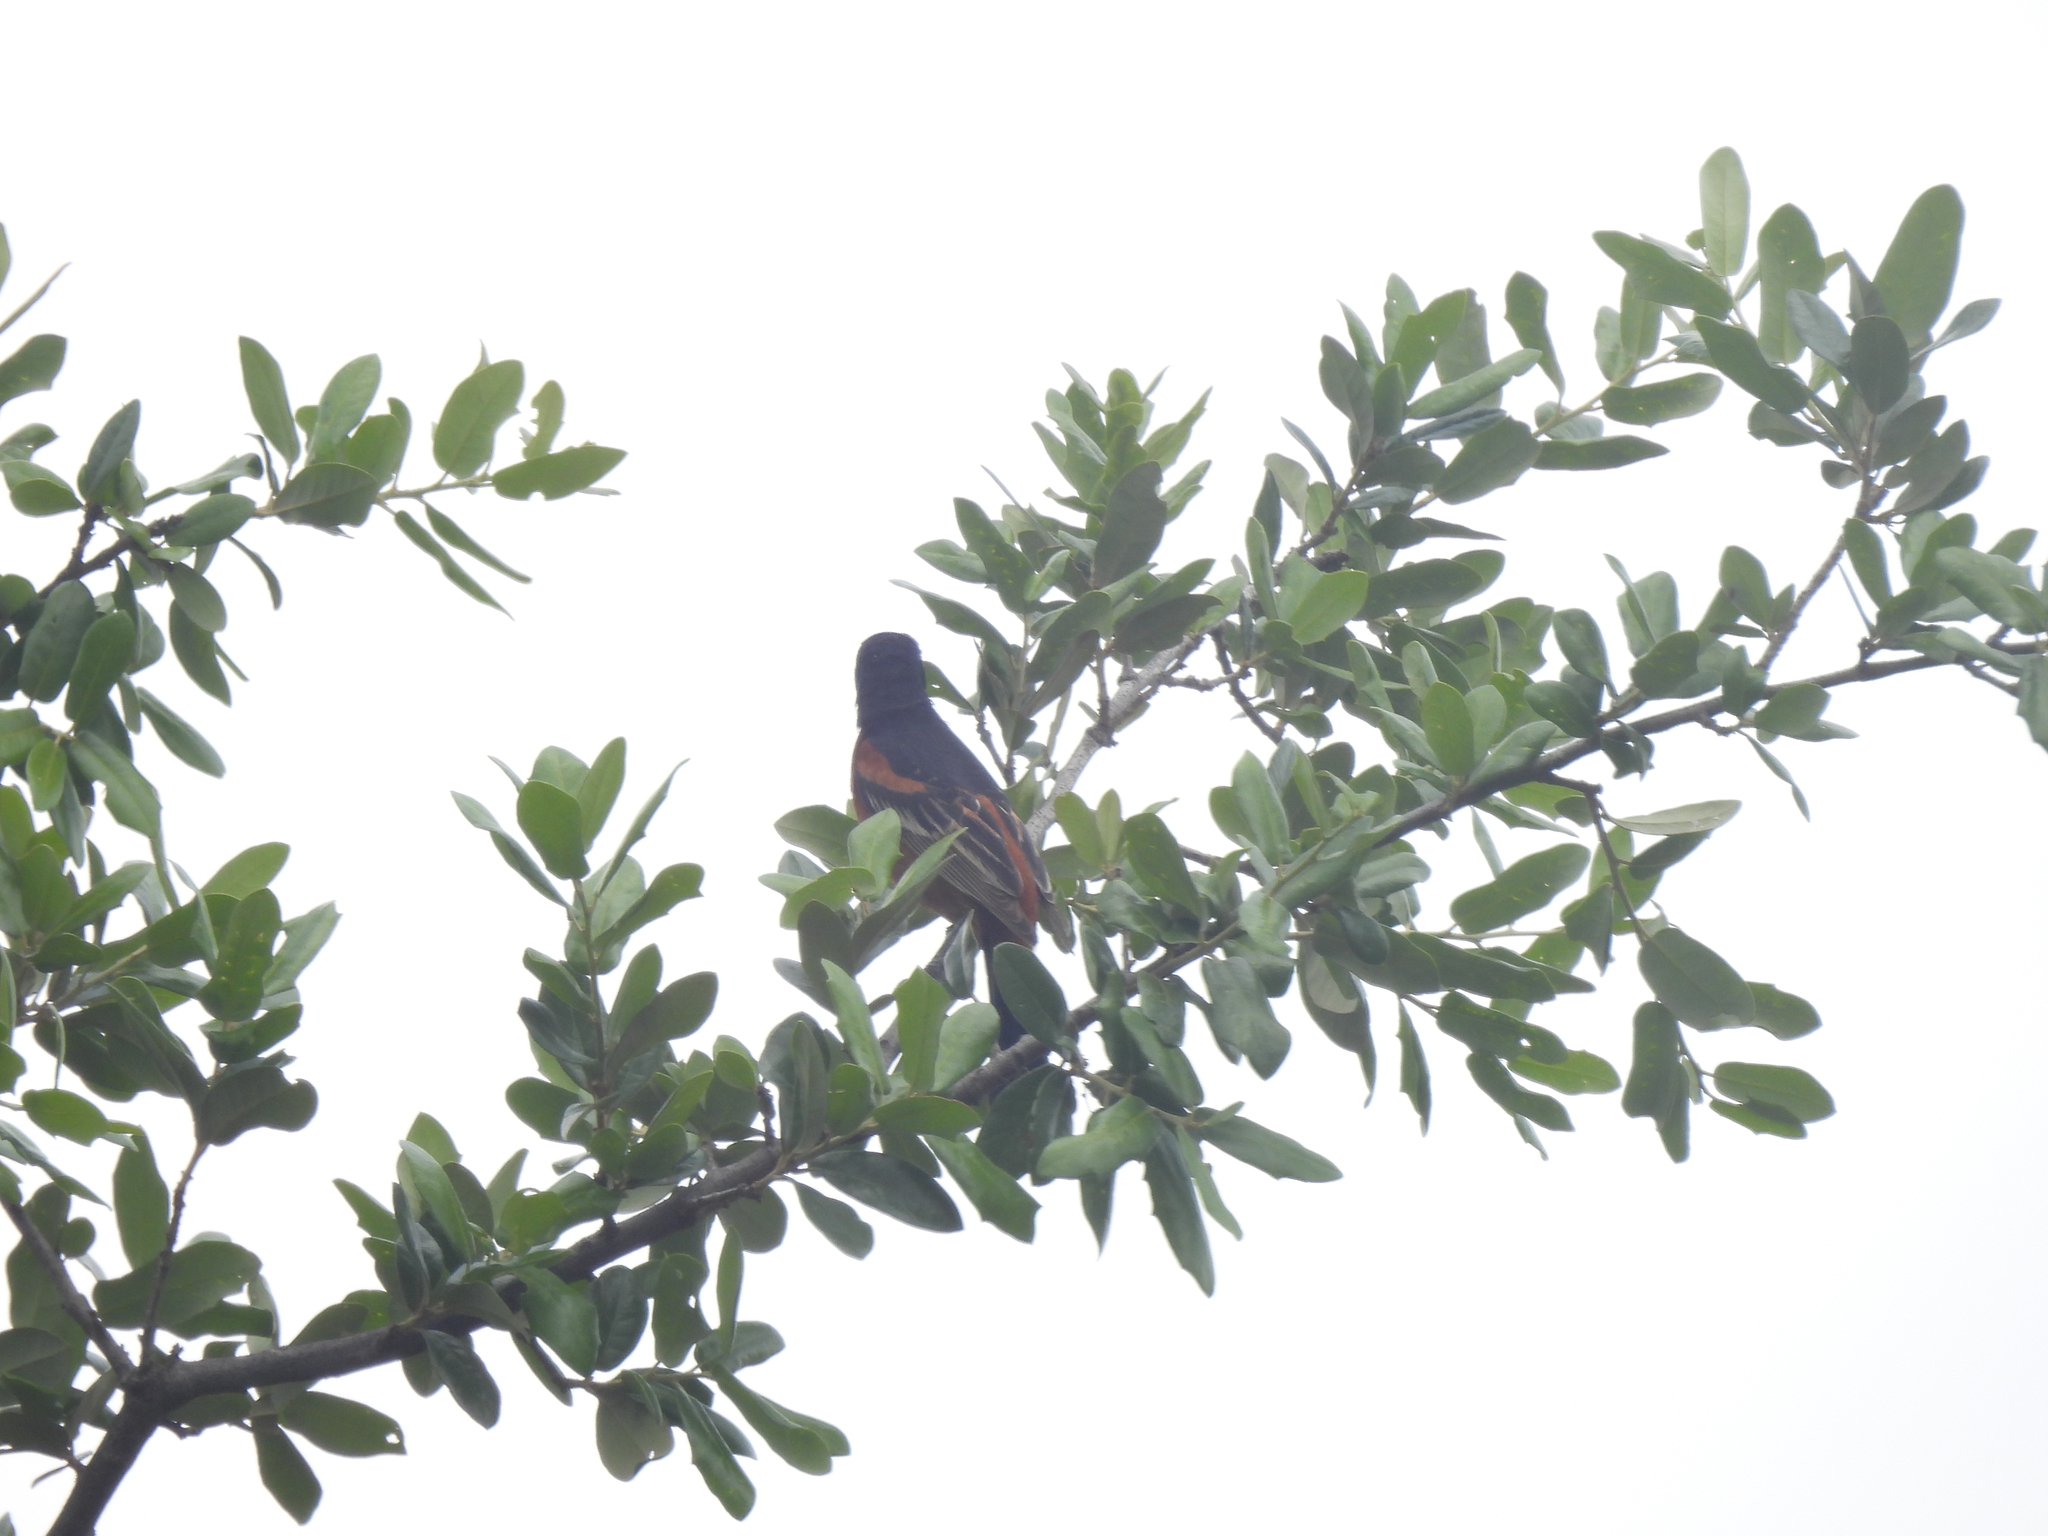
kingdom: Animalia
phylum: Chordata
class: Aves
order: Passeriformes
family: Icteridae
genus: Icterus
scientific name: Icterus spurius
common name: Orchard oriole
